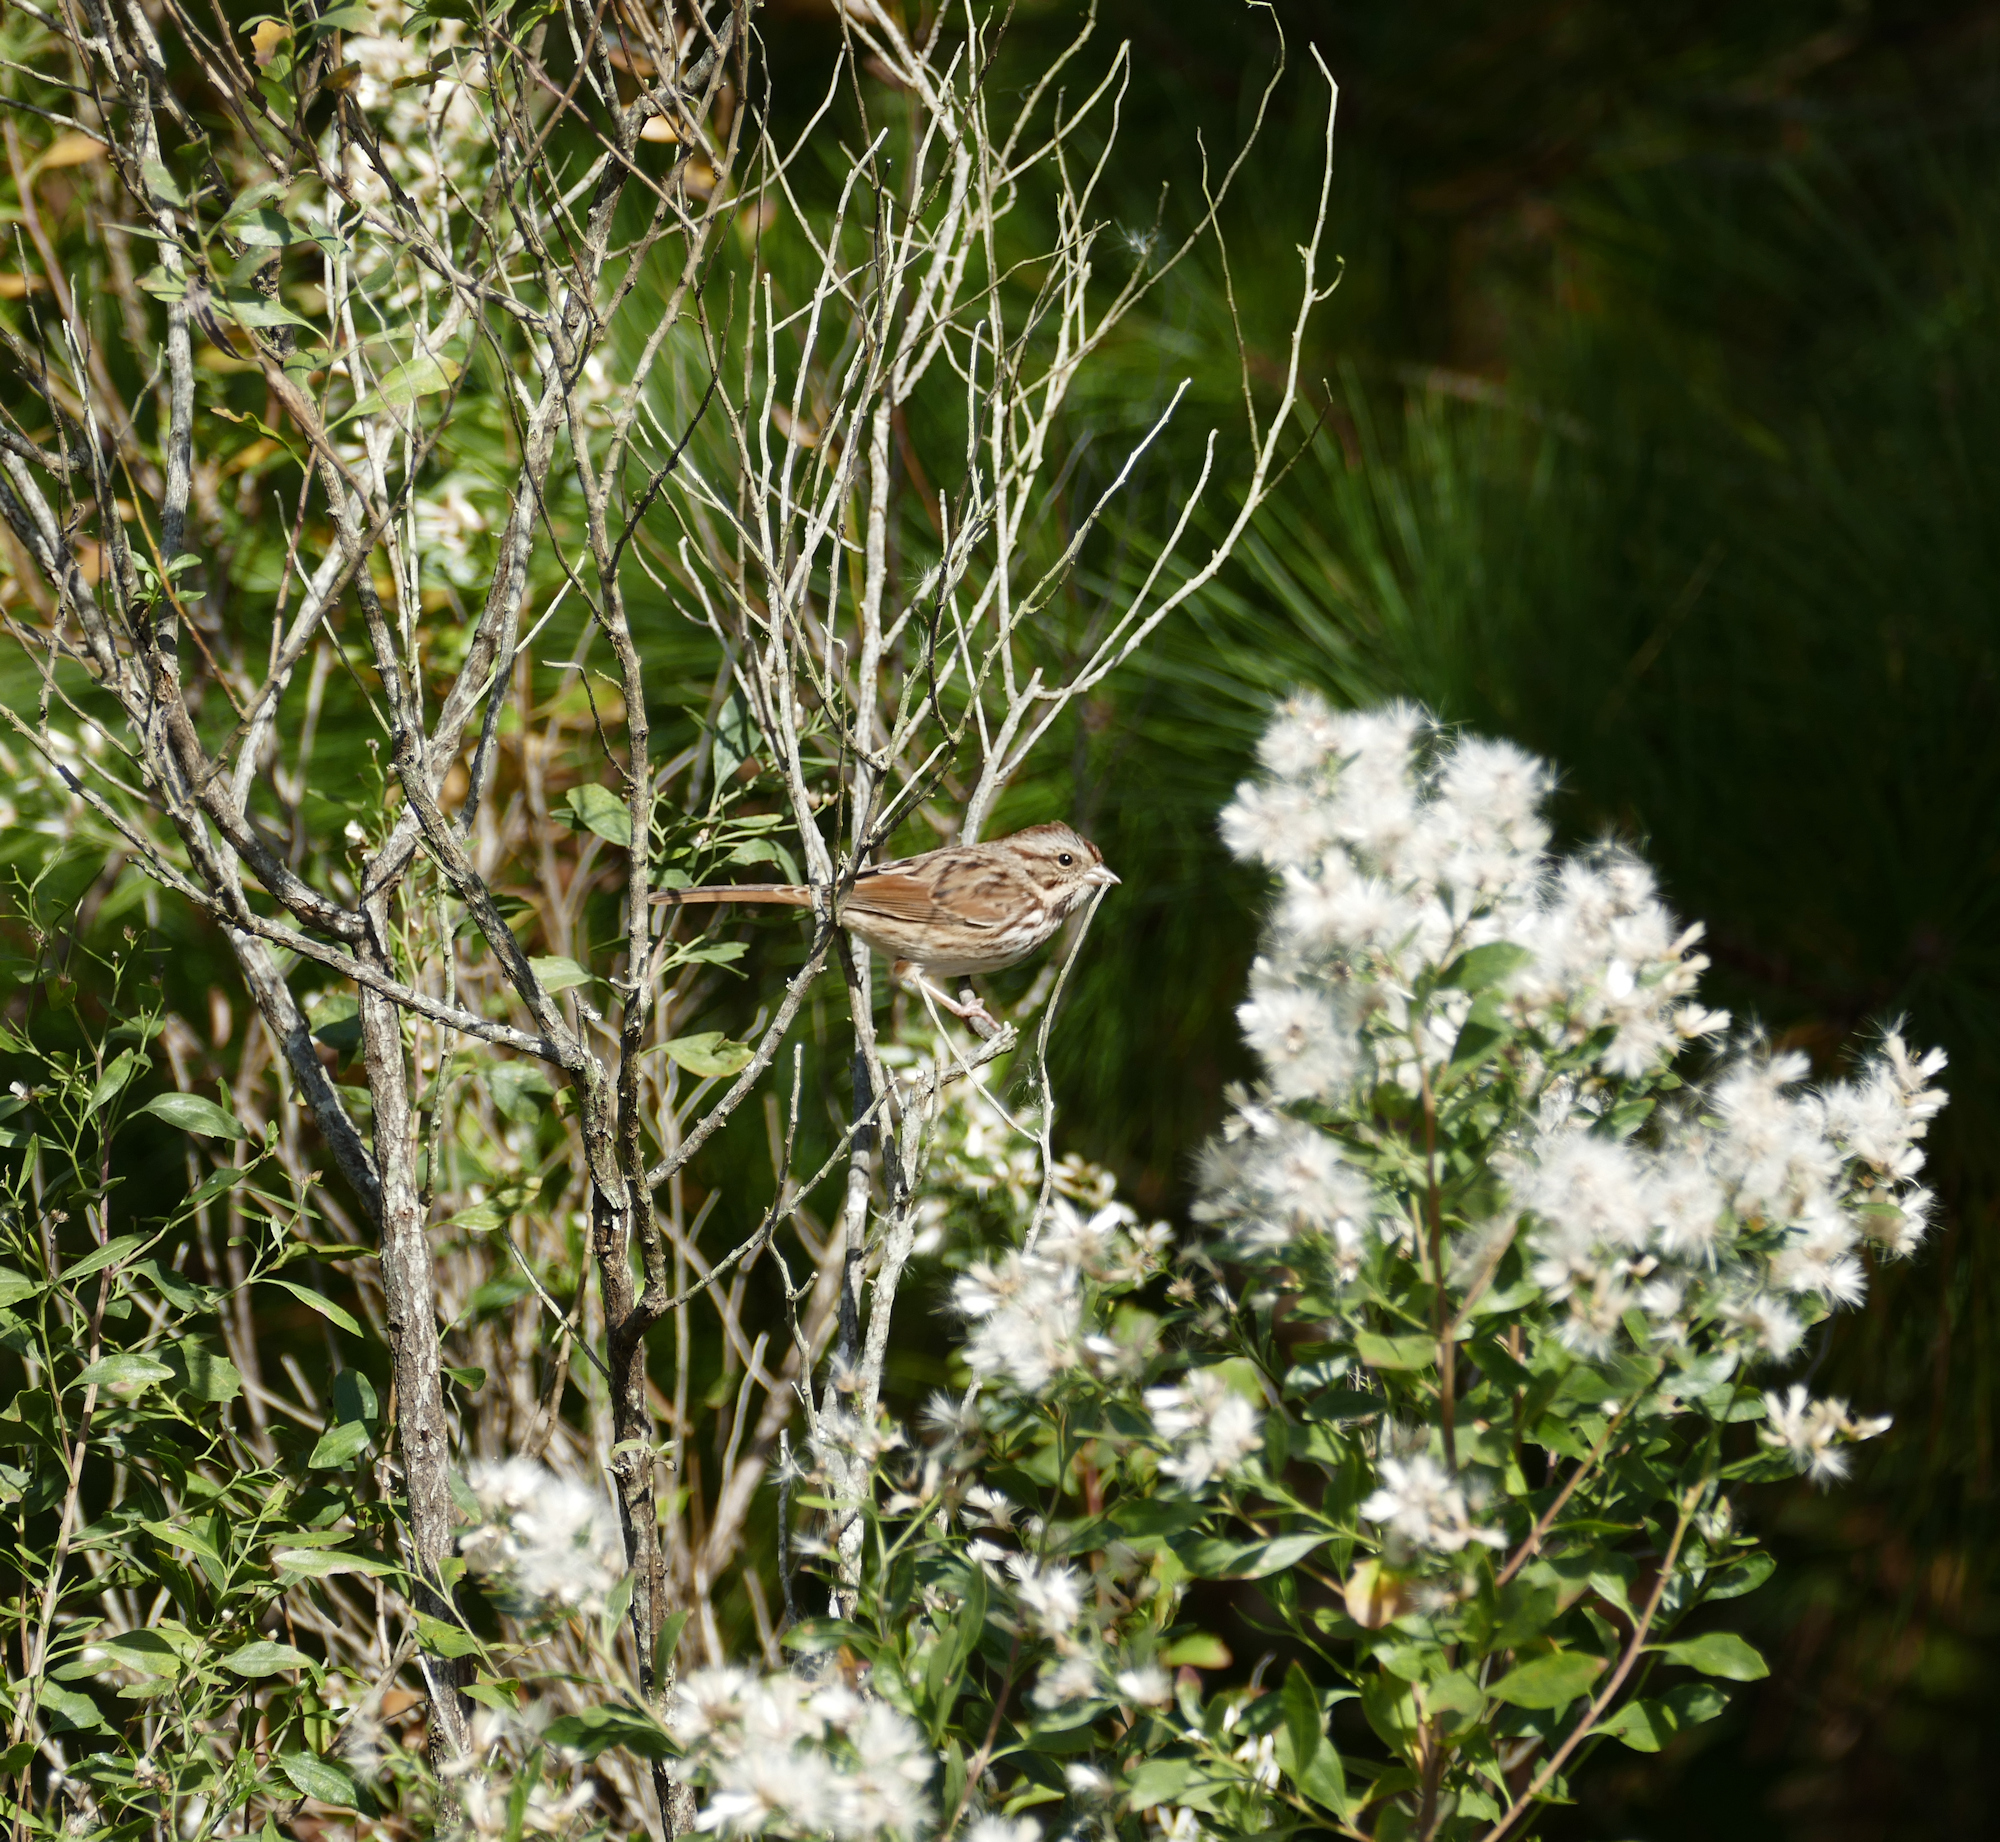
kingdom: Animalia
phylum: Chordata
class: Aves
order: Passeriformes
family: Passerellidae
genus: Melospiza
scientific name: Melospiza melodia
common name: Song sparrow
